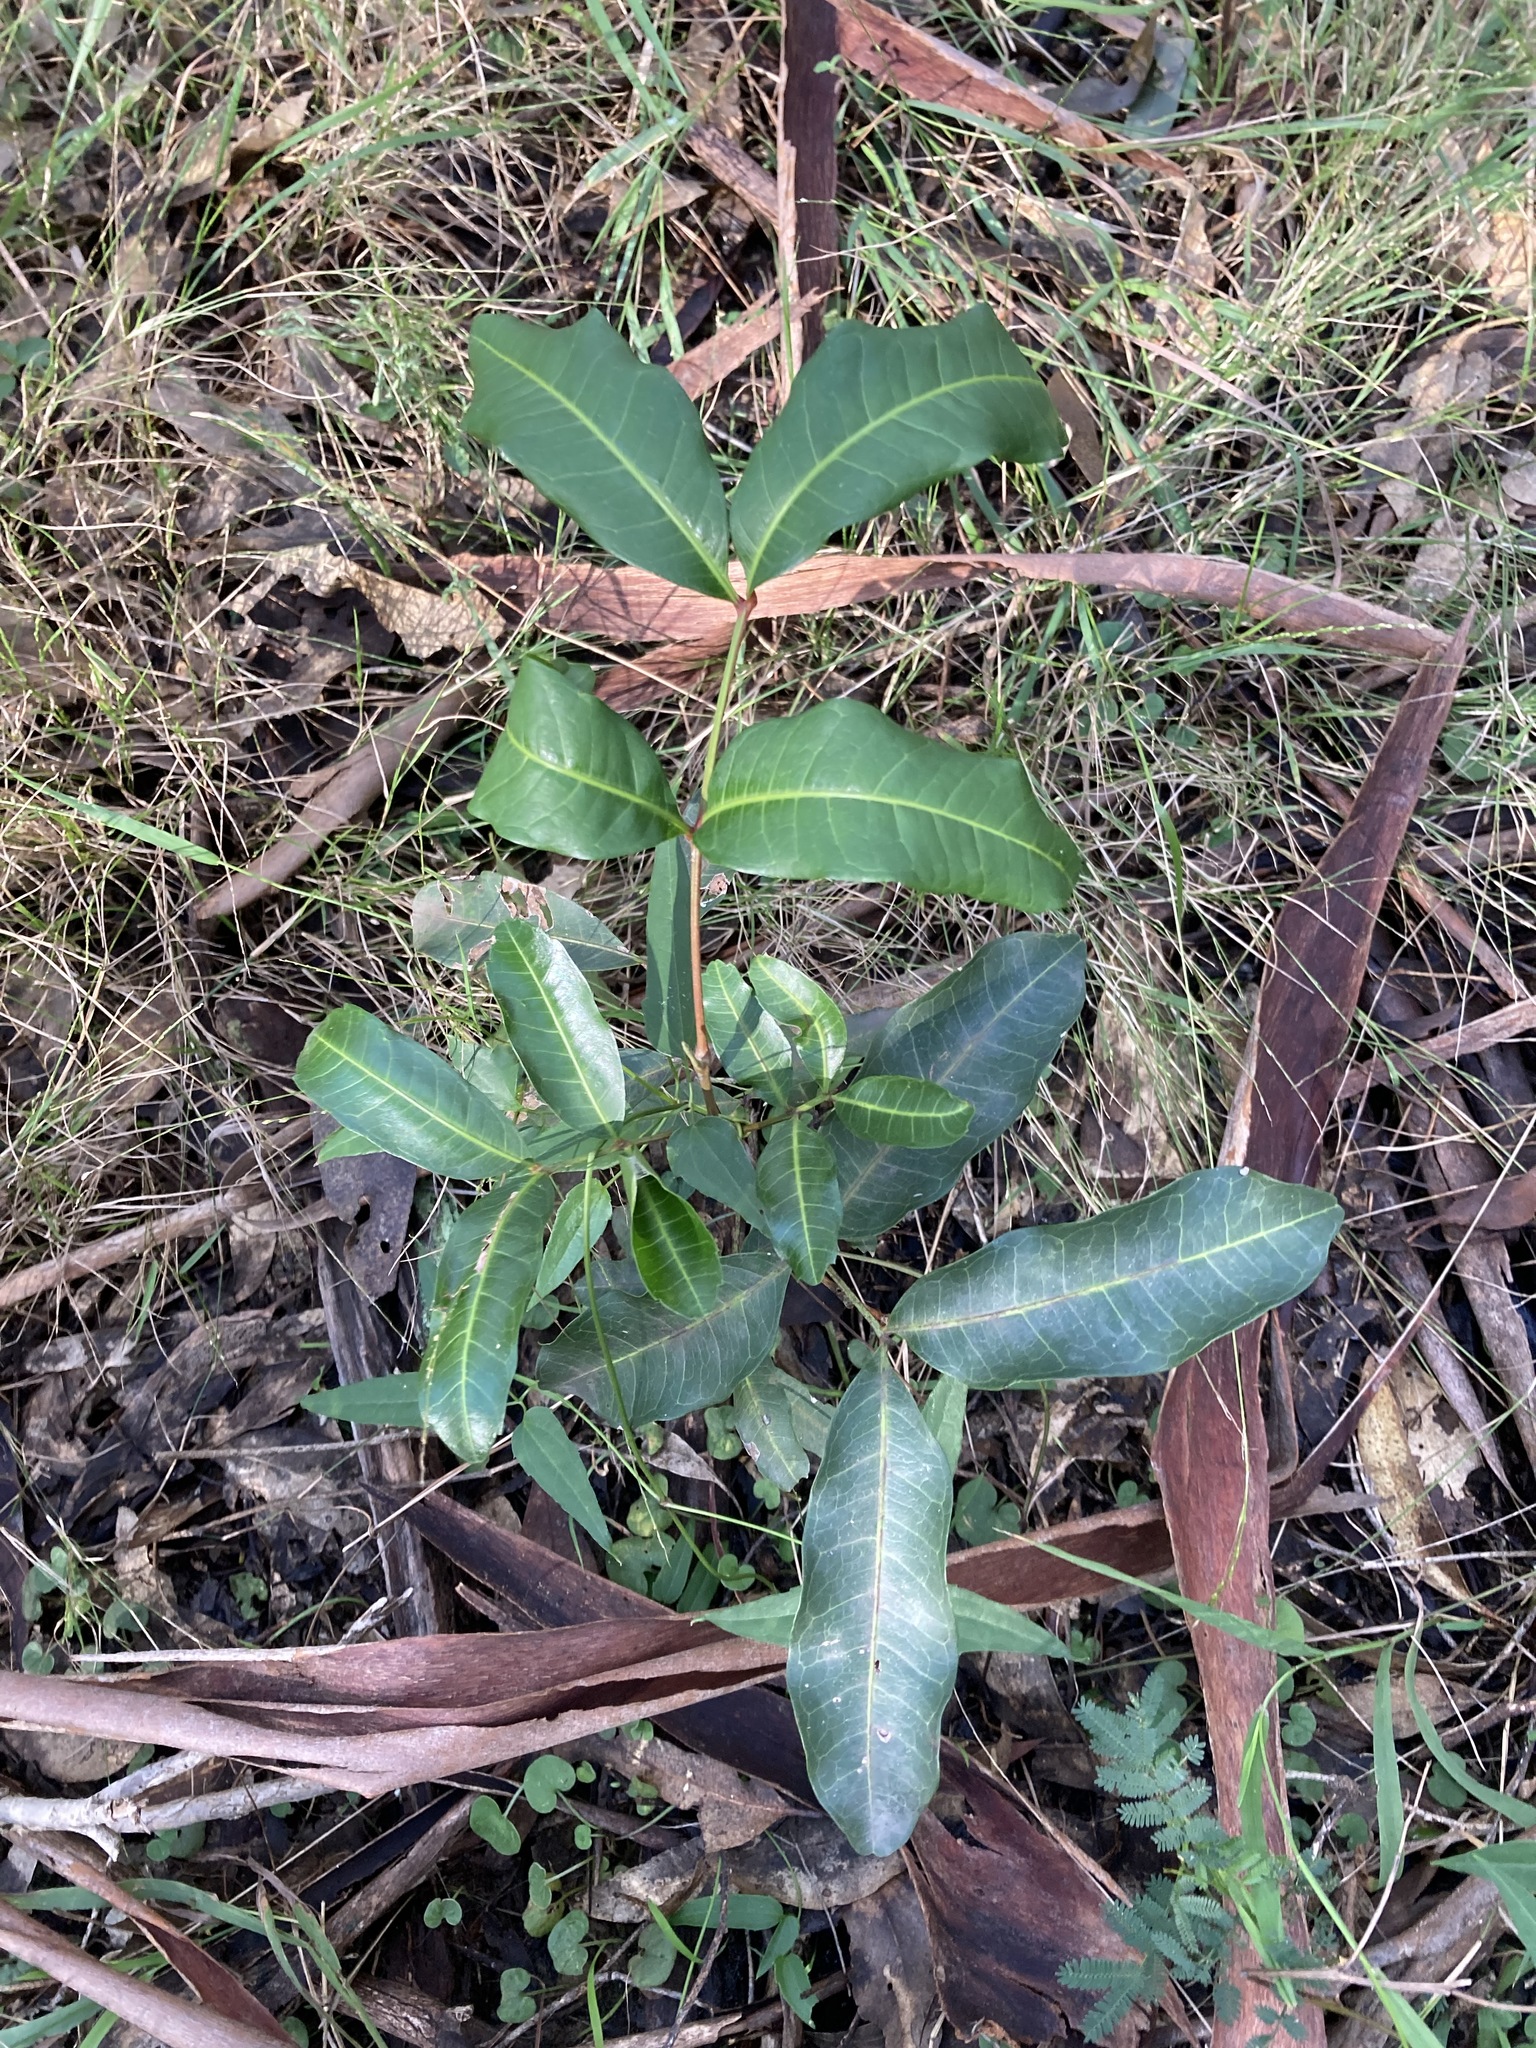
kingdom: Plantae
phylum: Tracheophyta
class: Magnoliopsida
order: Sapindales
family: Sapindaceae
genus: Cupaniopsis
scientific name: Cupaniopsis anacardioides
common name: Carrotwood
